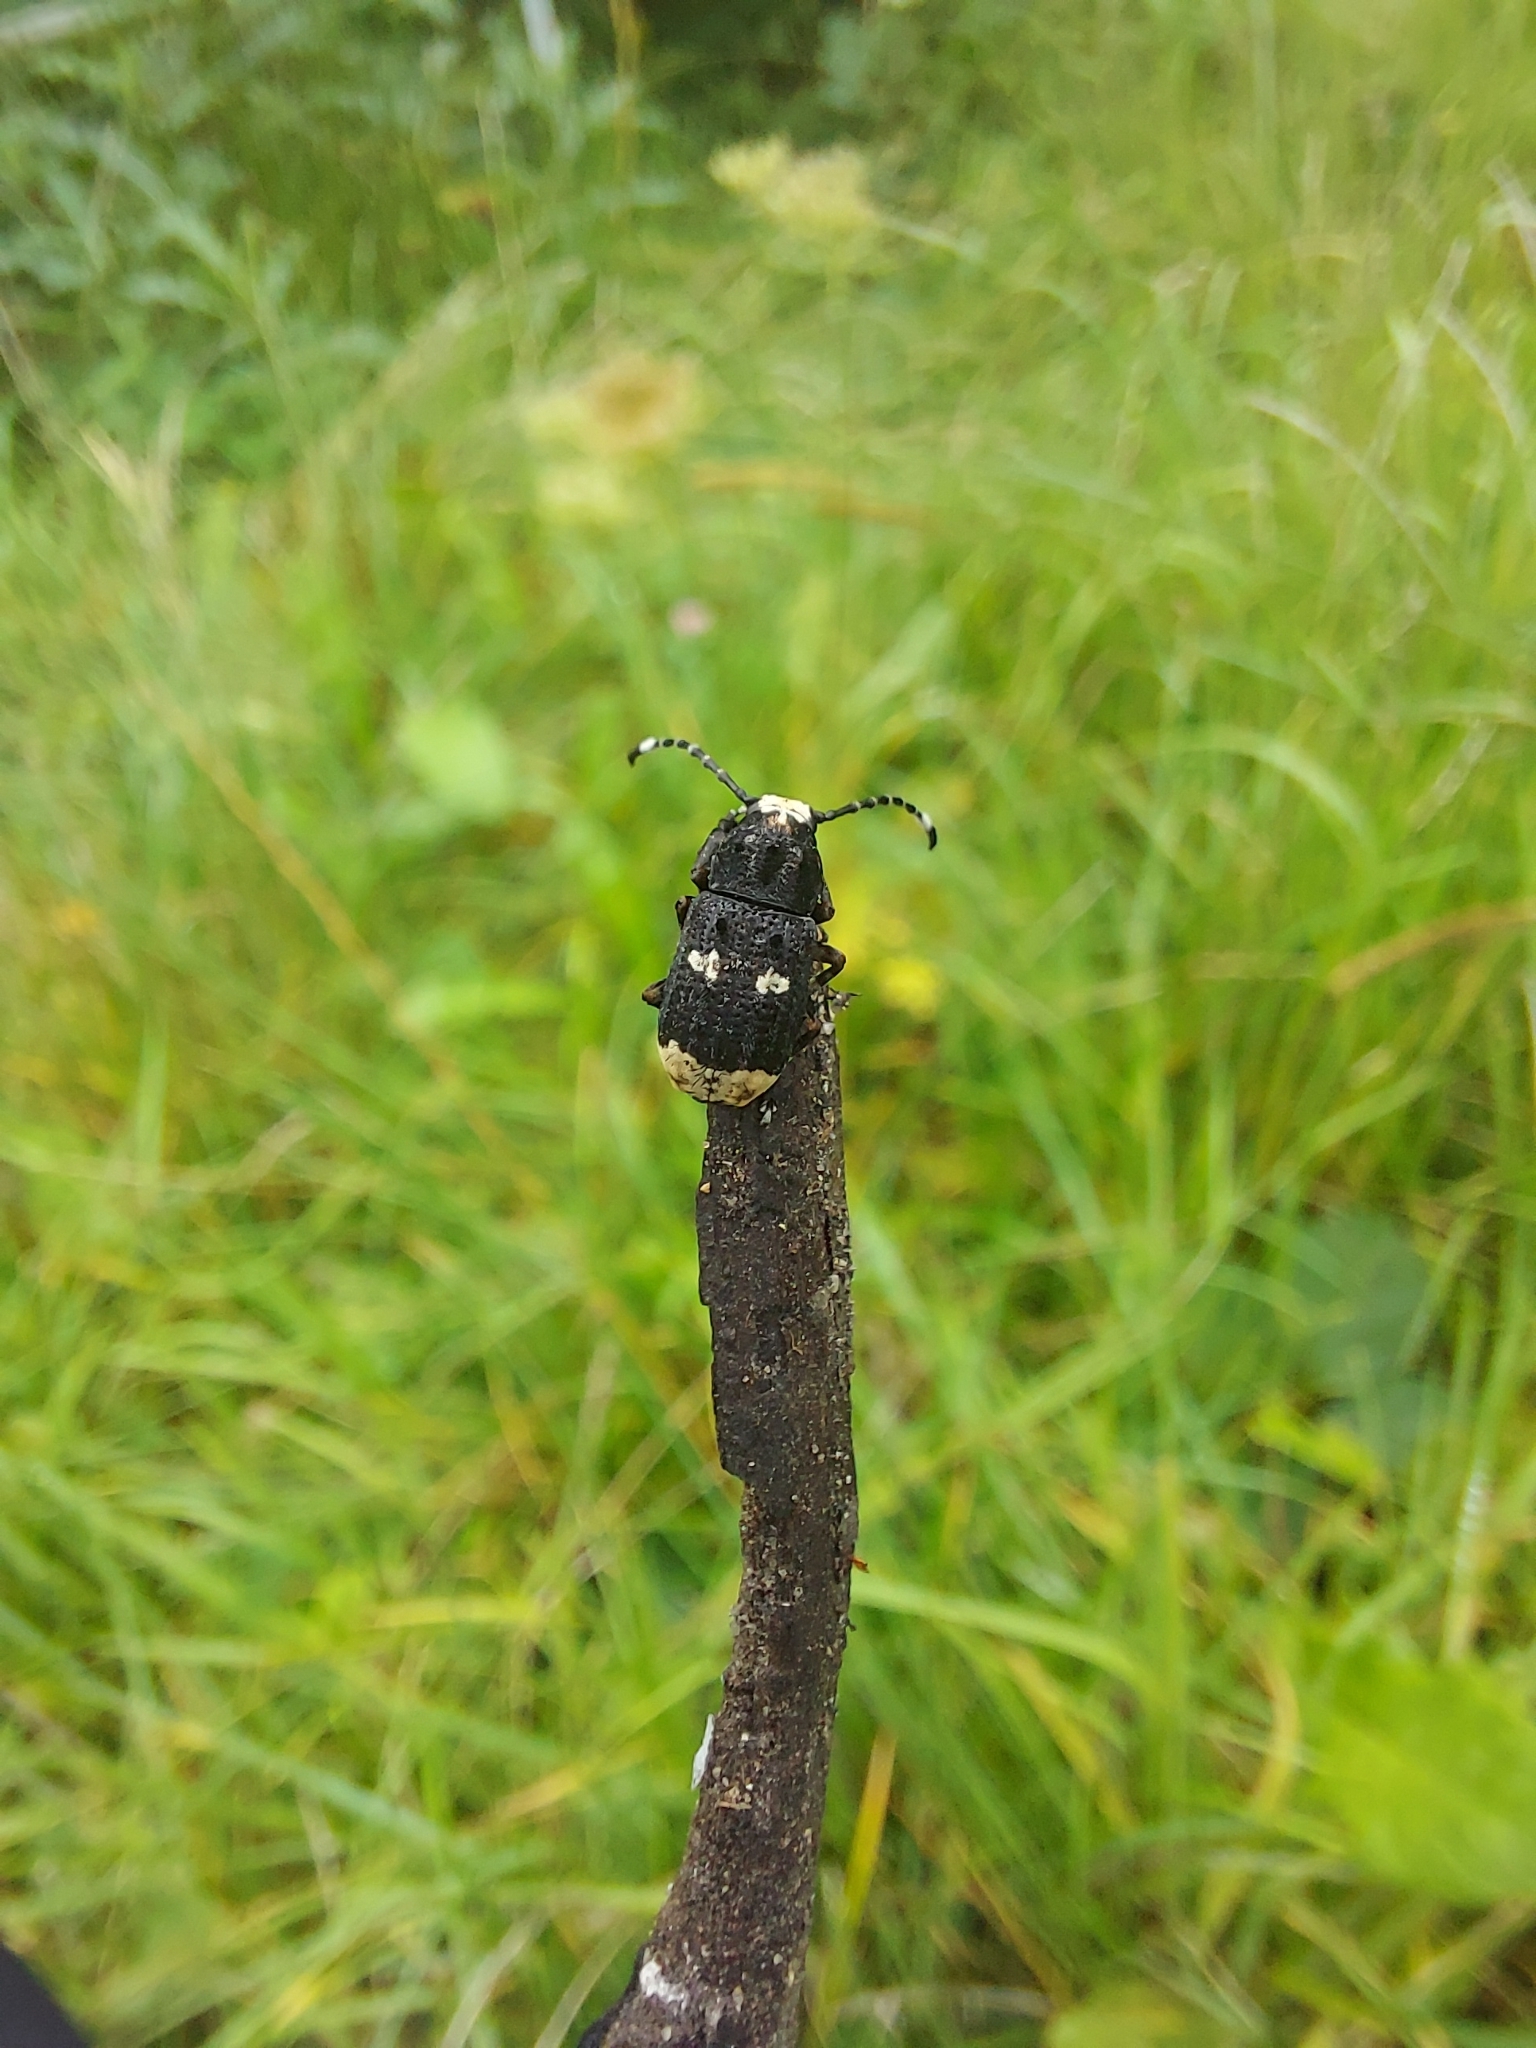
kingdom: Animalia
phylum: Arthropoda
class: Insecta
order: Coleoptera
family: Anthribidae
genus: Platystomos
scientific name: Platystomos albinus
